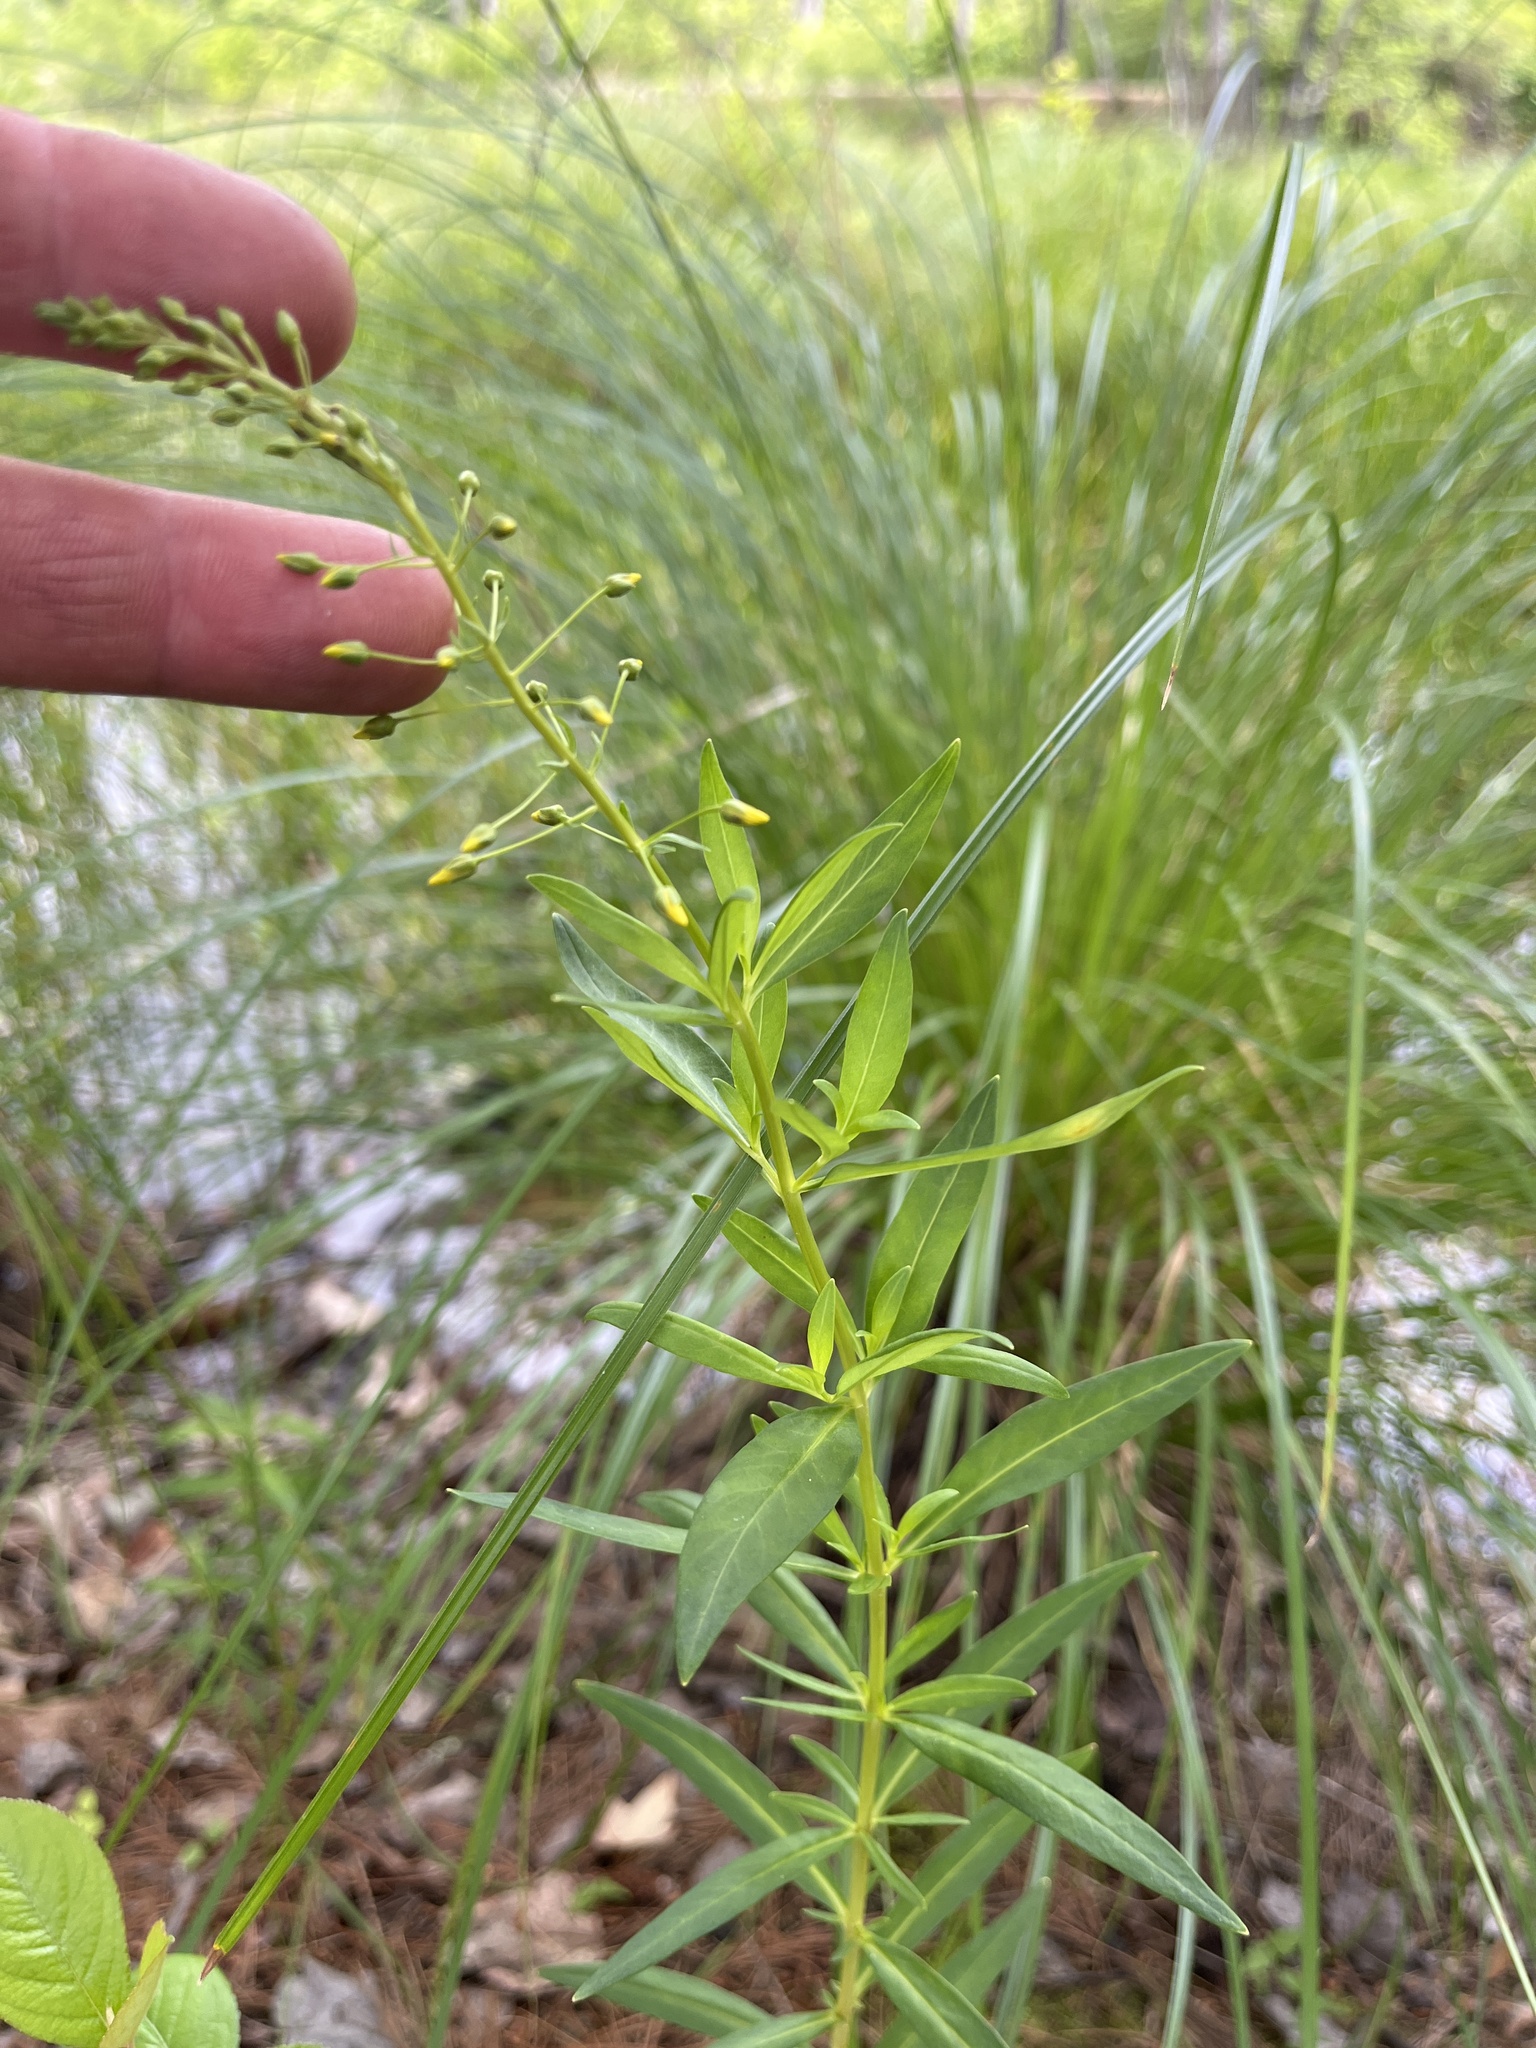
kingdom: Plantae
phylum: Tracheophyta
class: Magnoliopsida
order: Ericales
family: Primulaceae
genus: Lysimachia
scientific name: Lysimachia terrestris
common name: Lake loosestrife
